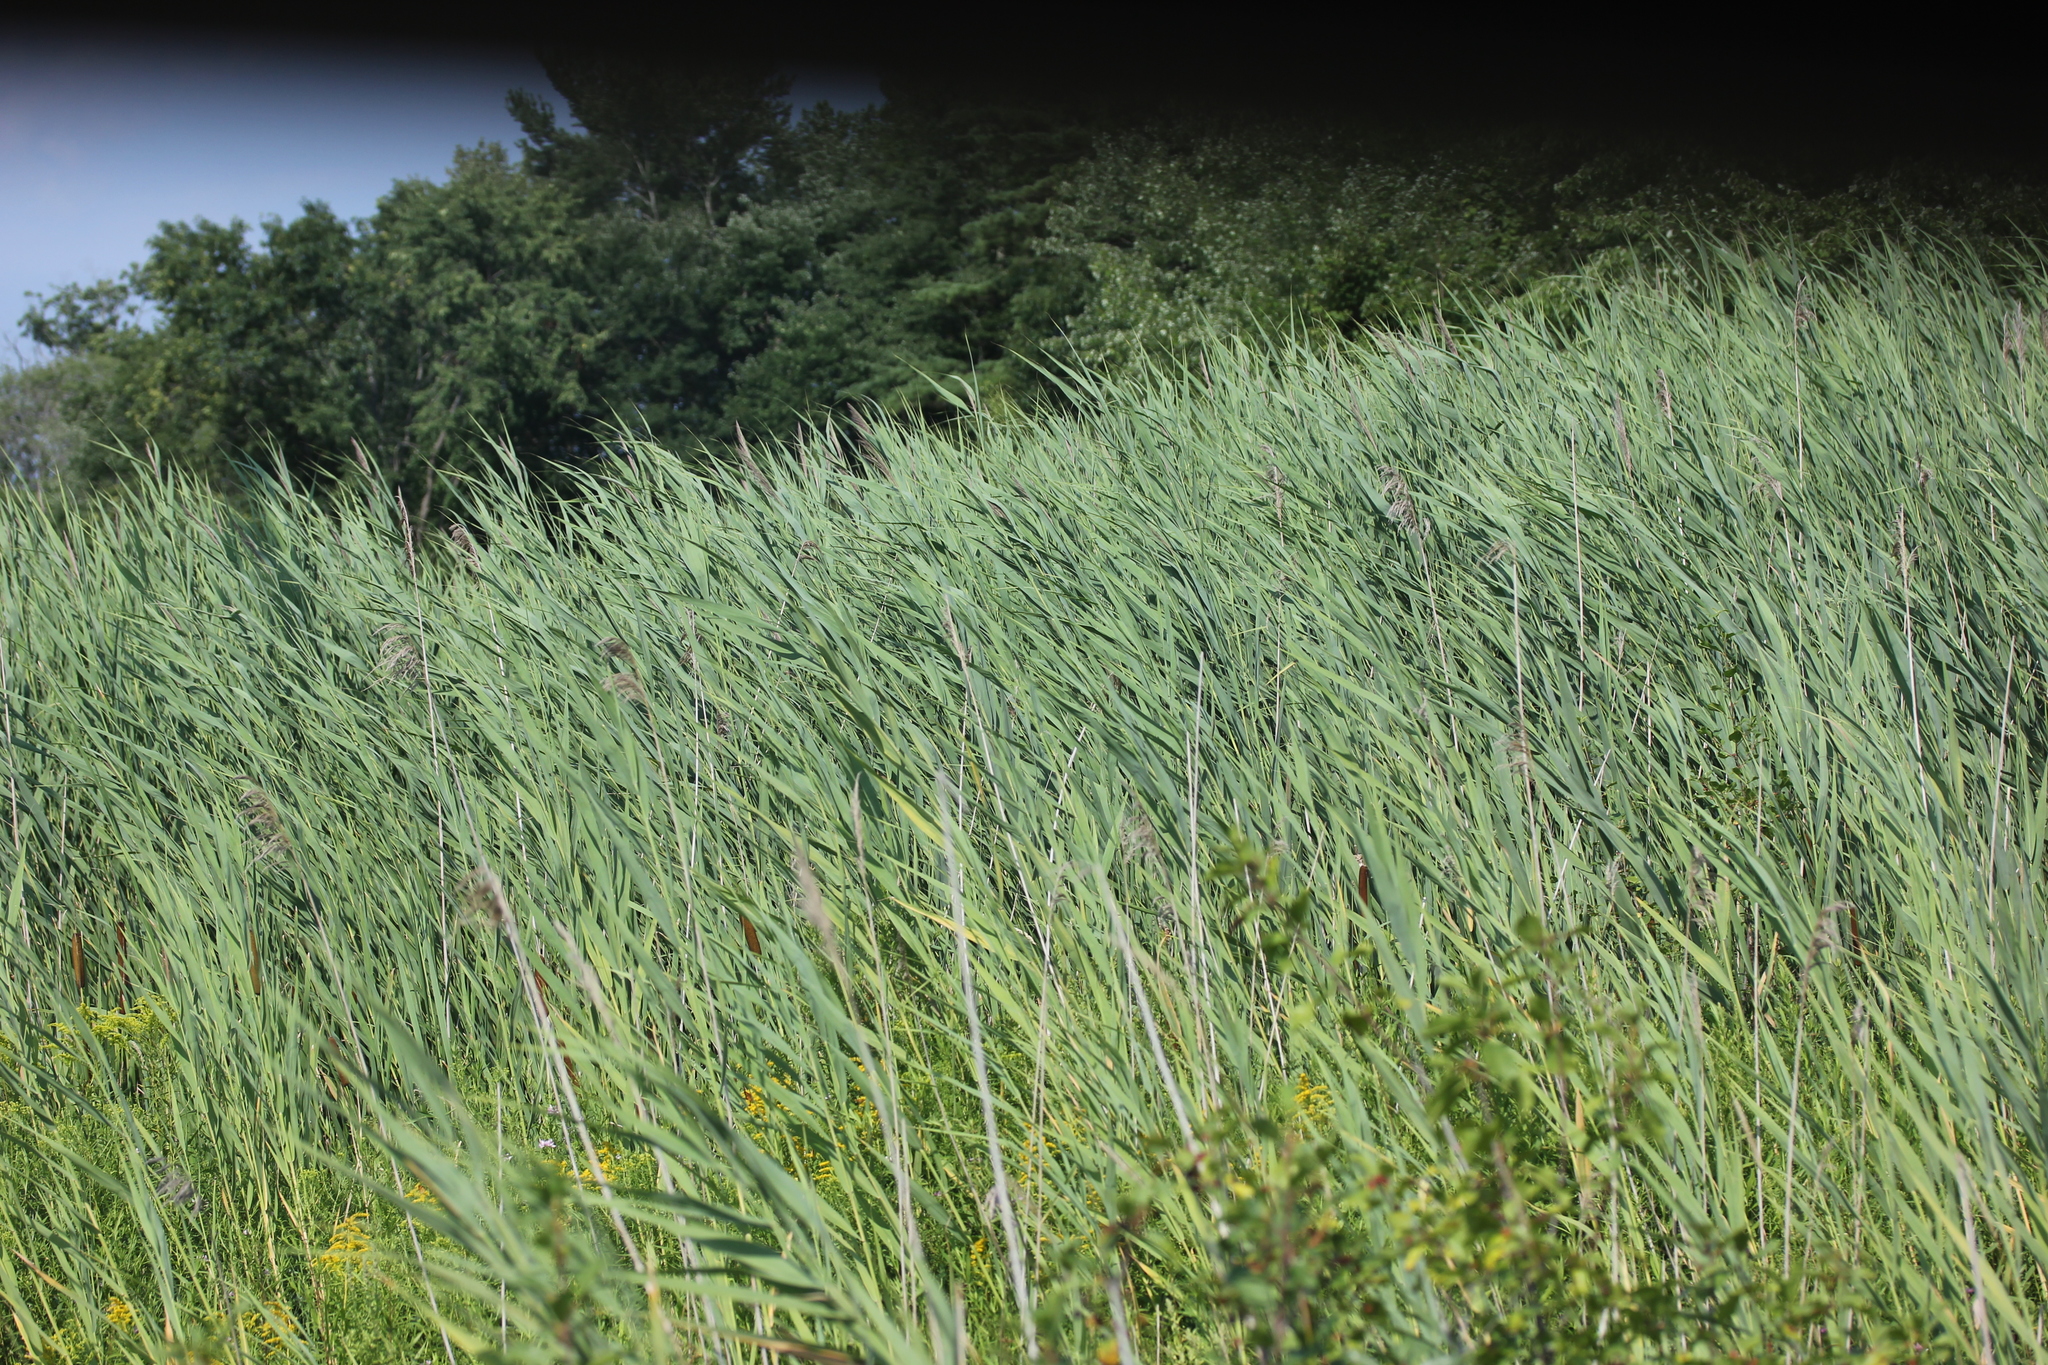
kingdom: Plantae
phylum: Tracheophyta
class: Liliopsida
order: Poales
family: Poaceae
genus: Phragmites
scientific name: Phragmites australis
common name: Common reed
